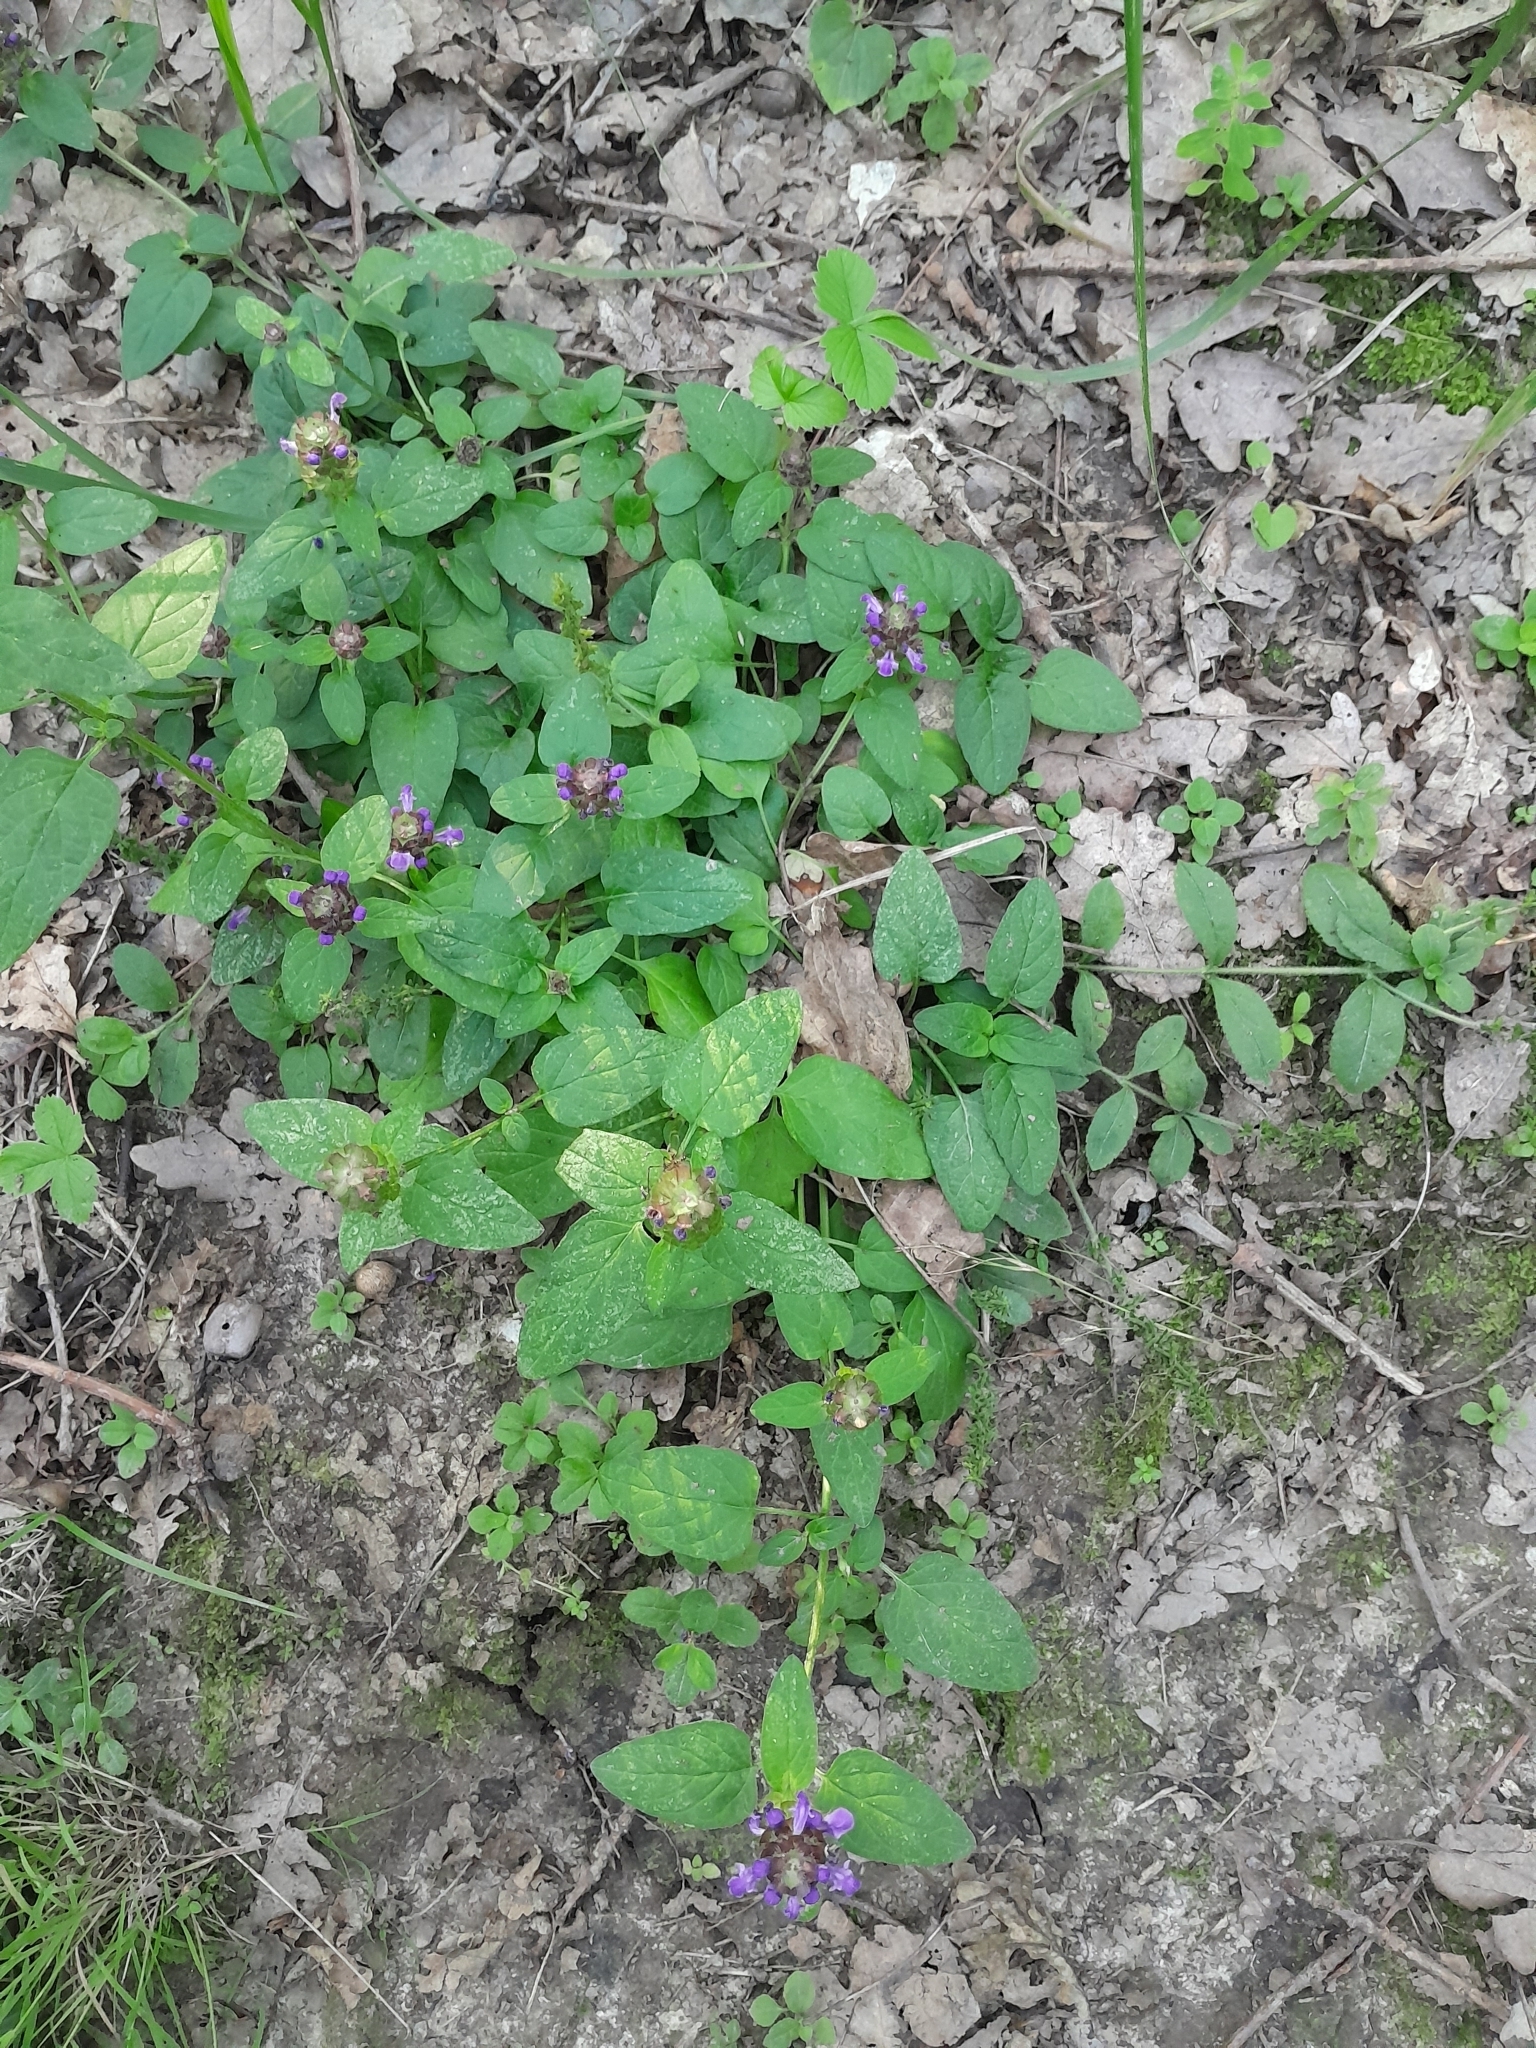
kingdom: Plantae
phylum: Tracheophyta
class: Magnoliopsida
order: Lamiales
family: Lamiaceae
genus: Prunella
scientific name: Prunella vulgaris
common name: Heal-all
